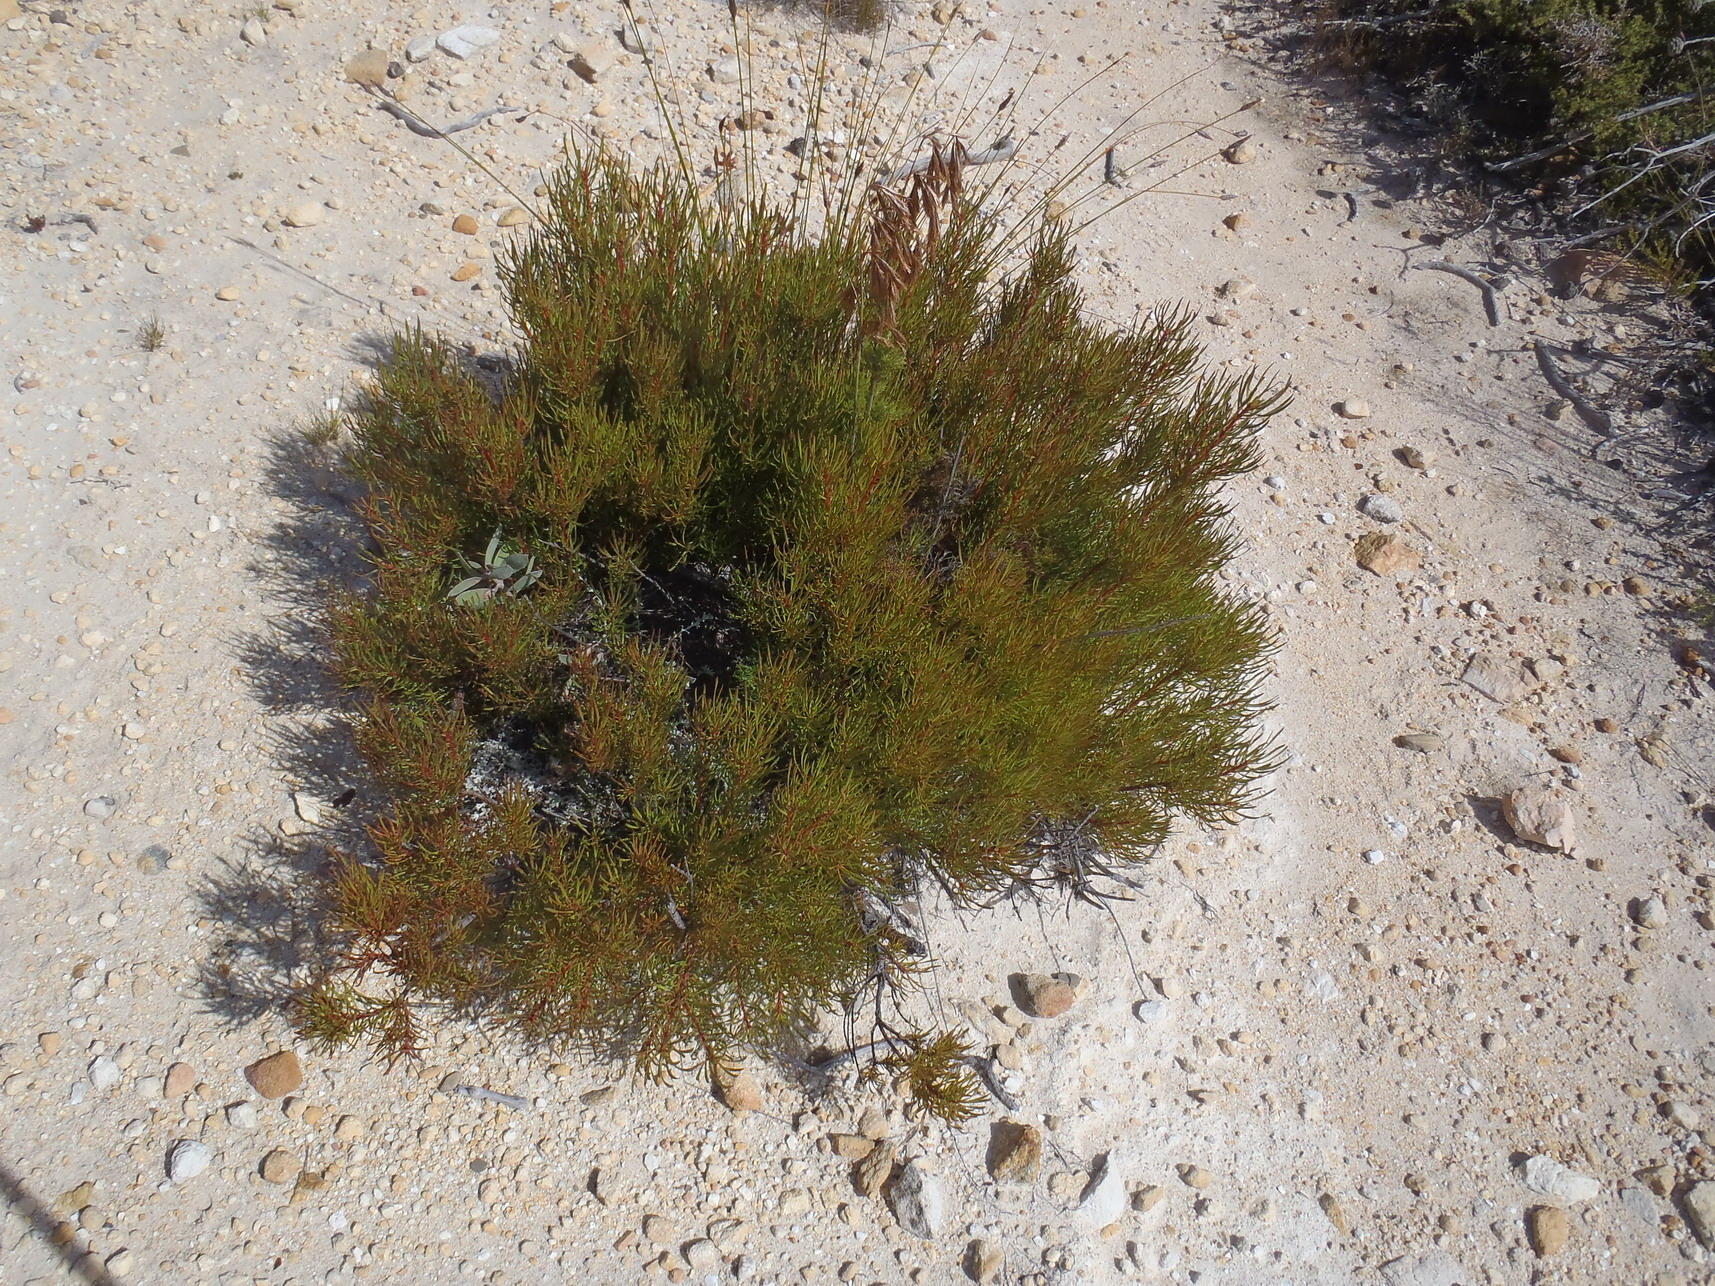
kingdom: Plantae
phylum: Tracheophyta
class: Magnoliopsida
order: Proteales
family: Proteaceae
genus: Leucadendron
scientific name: Leucadendron spissifolium
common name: Spear-leaf conebush
